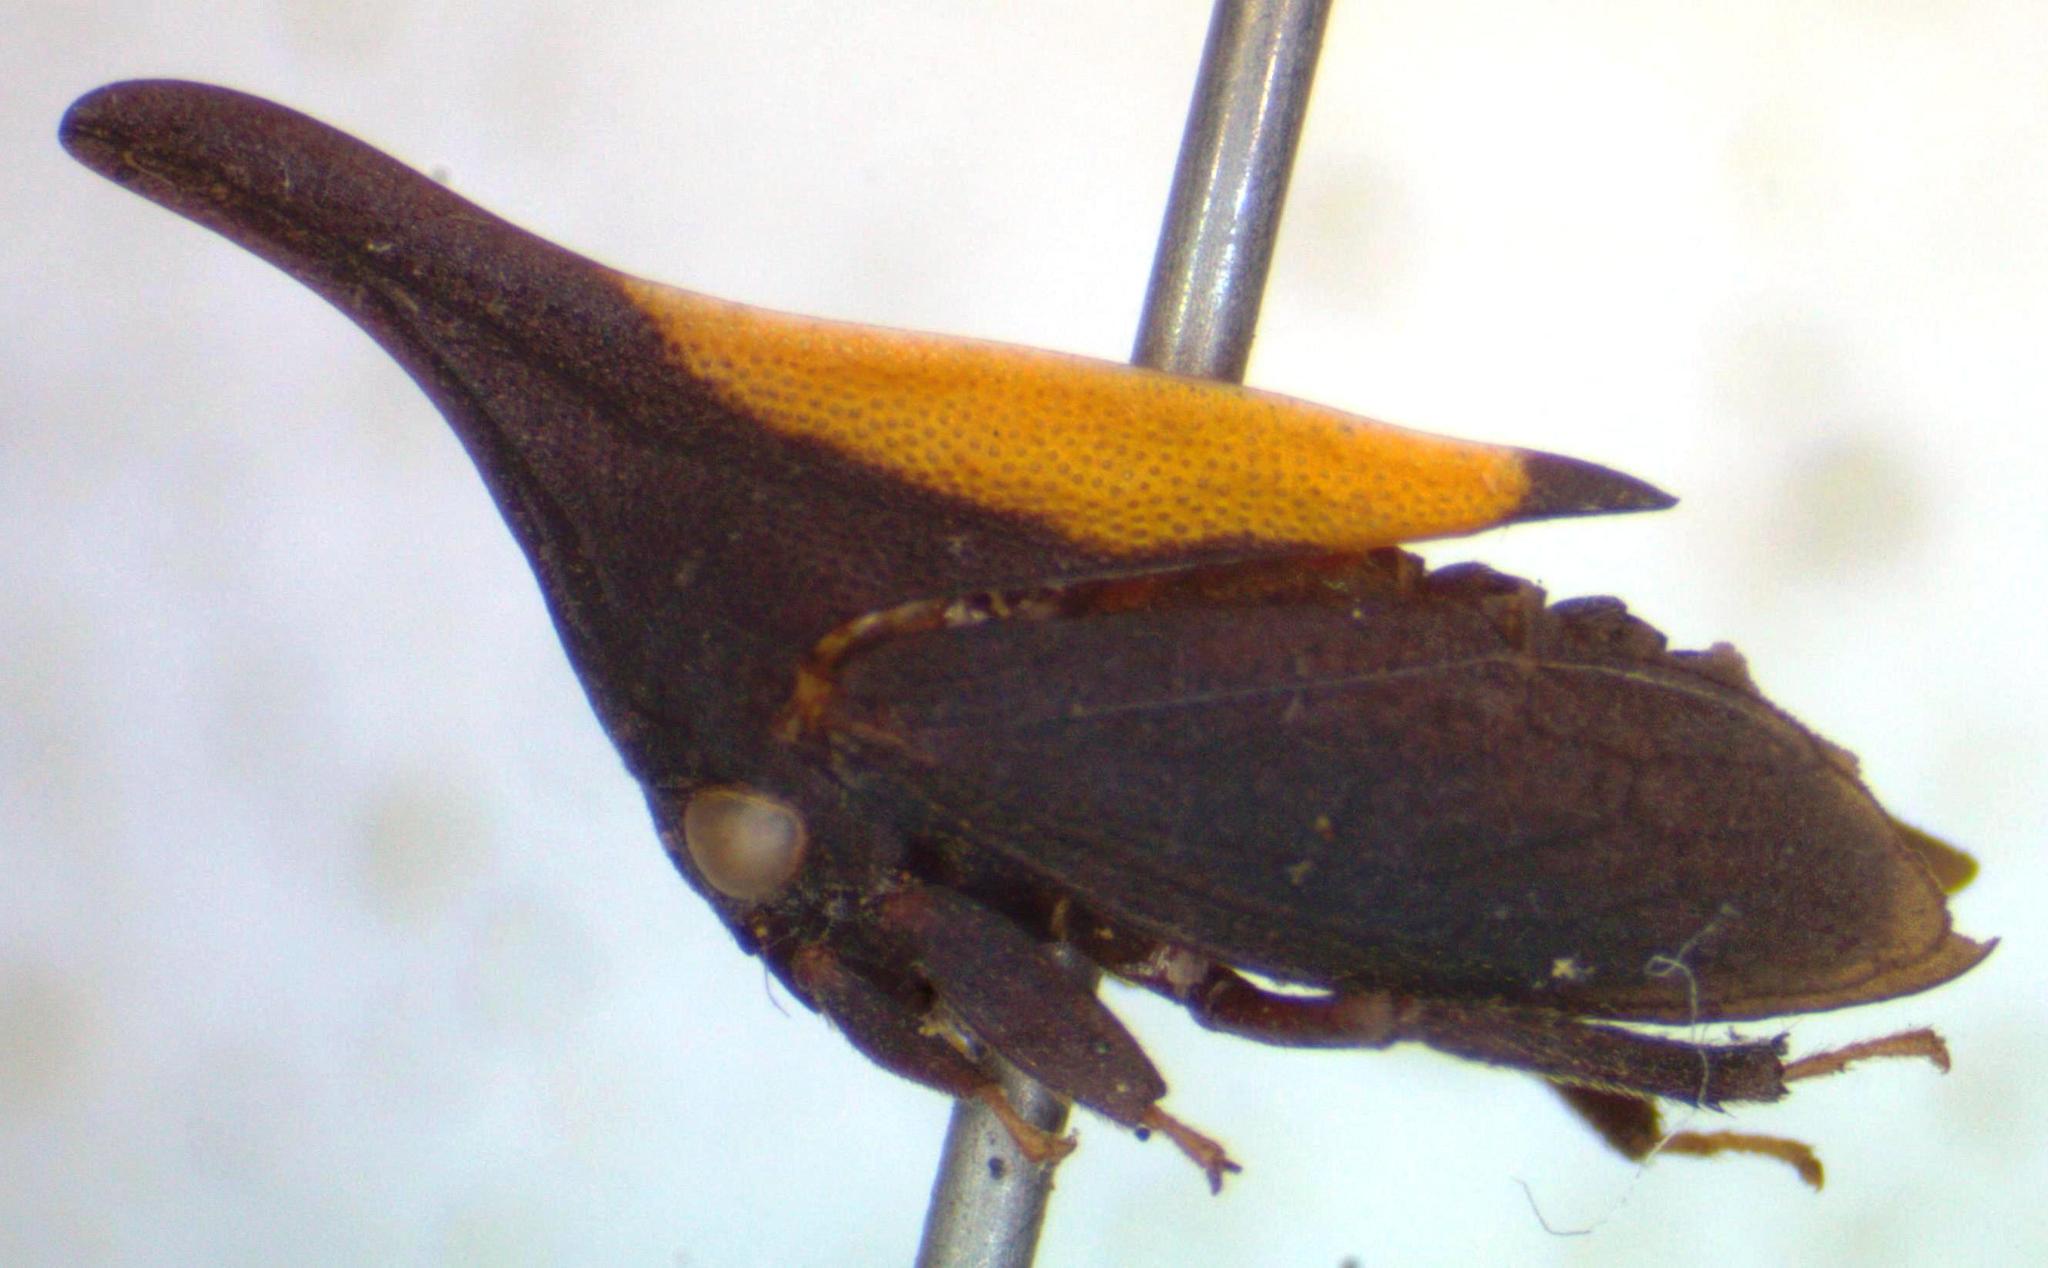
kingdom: Animalia
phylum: Arthropoda
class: Insecta
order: Hemiptera
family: Membracidae
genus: Enchenopa
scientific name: Enchenopa albidorsa
